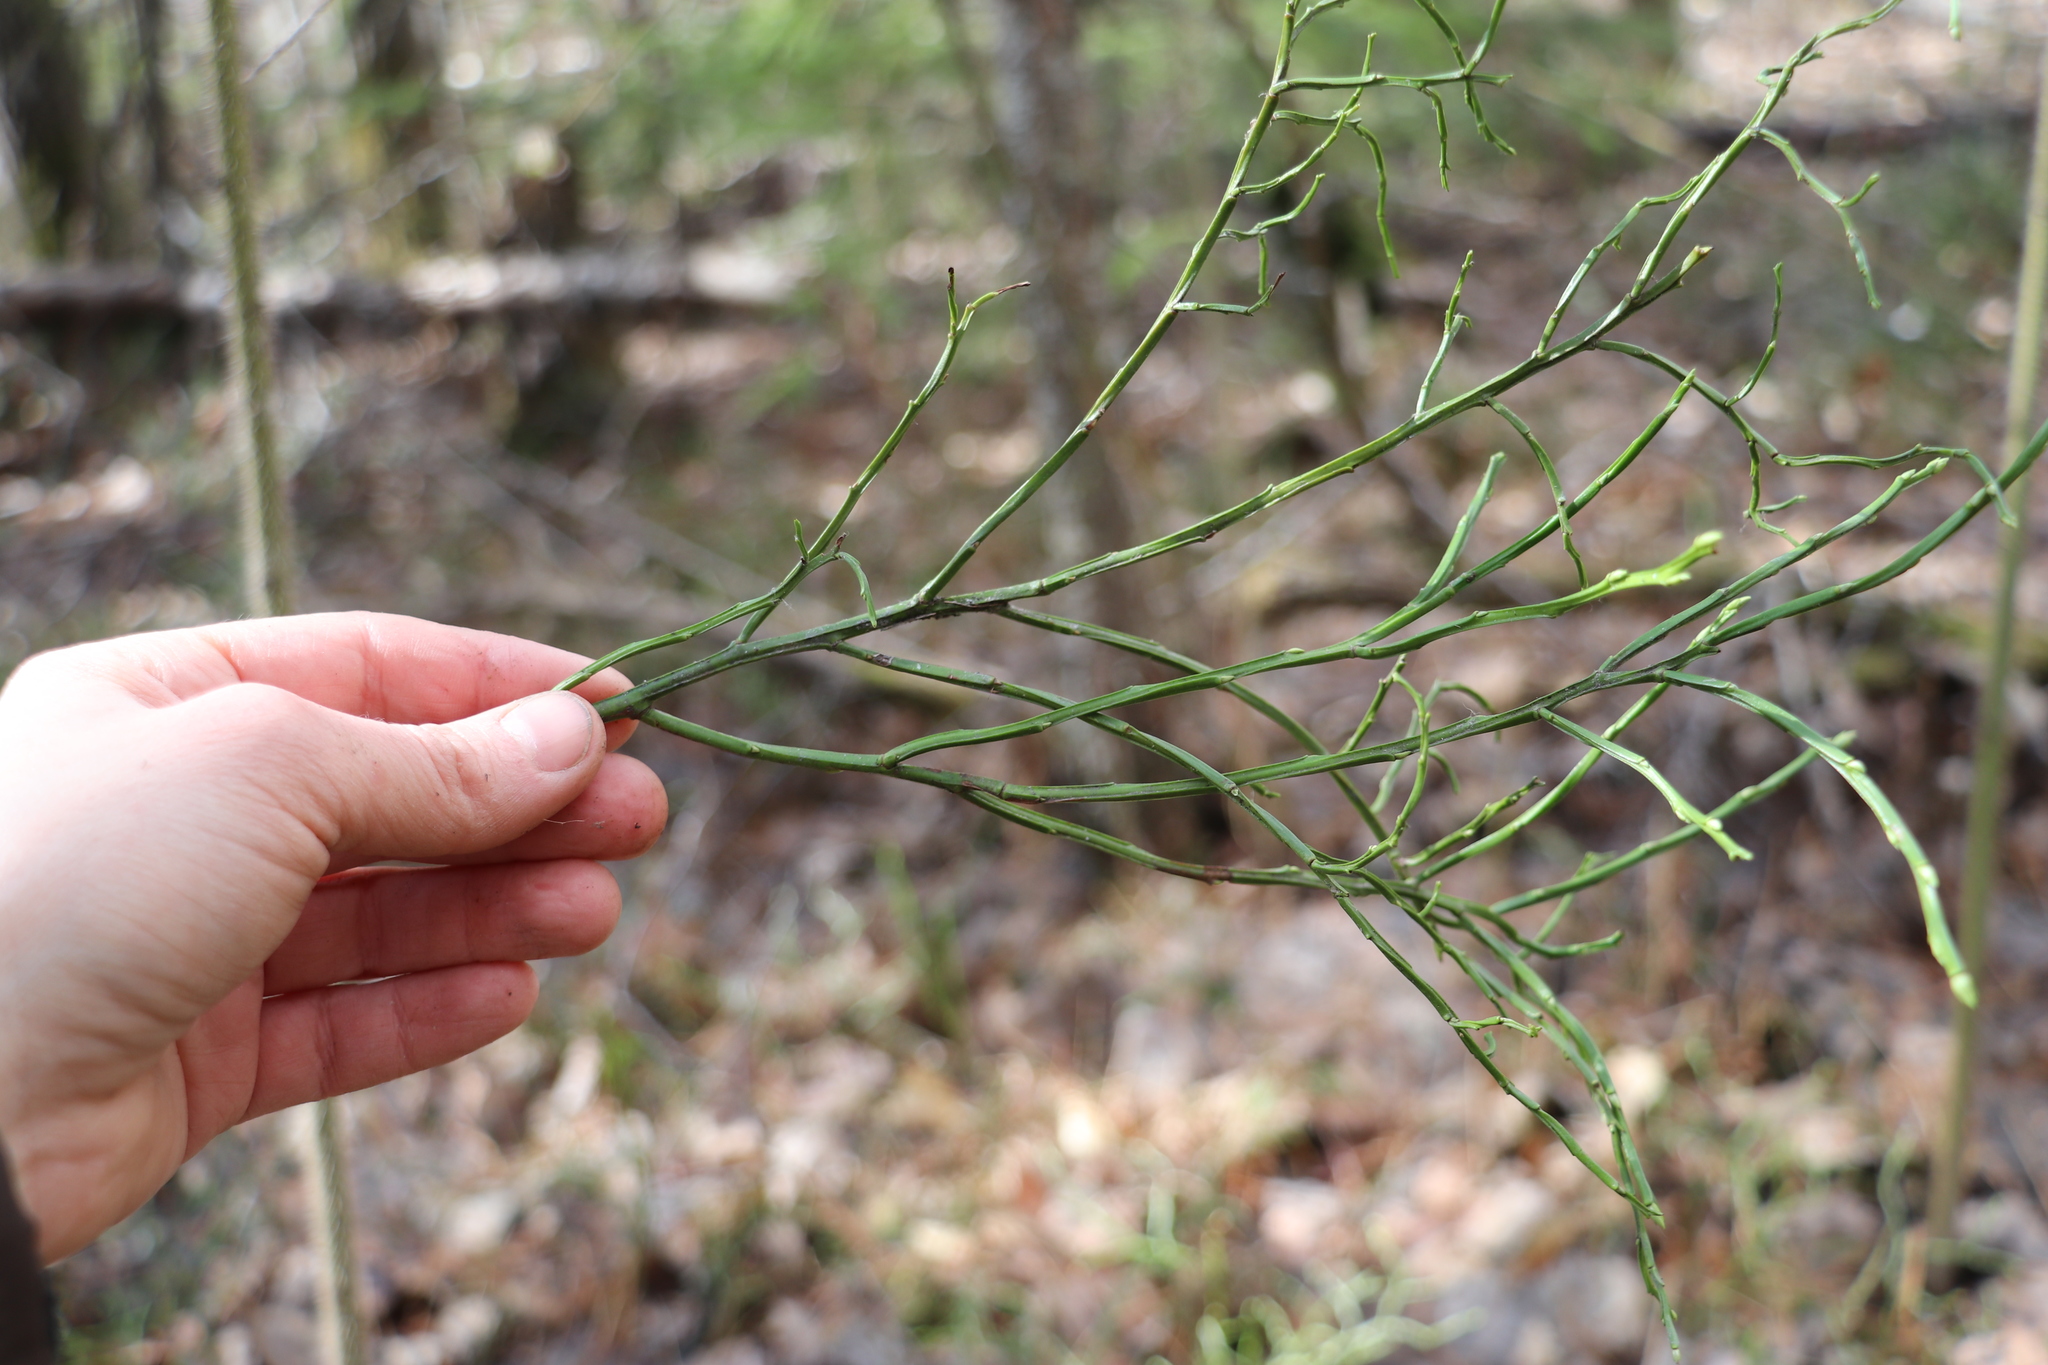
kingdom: Plantae
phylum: Tracheophyta
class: Magnoliopsida
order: Ericales
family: Ericaceae
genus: Vaccinium
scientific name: Vaccinium myrtillus
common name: Bilberry
